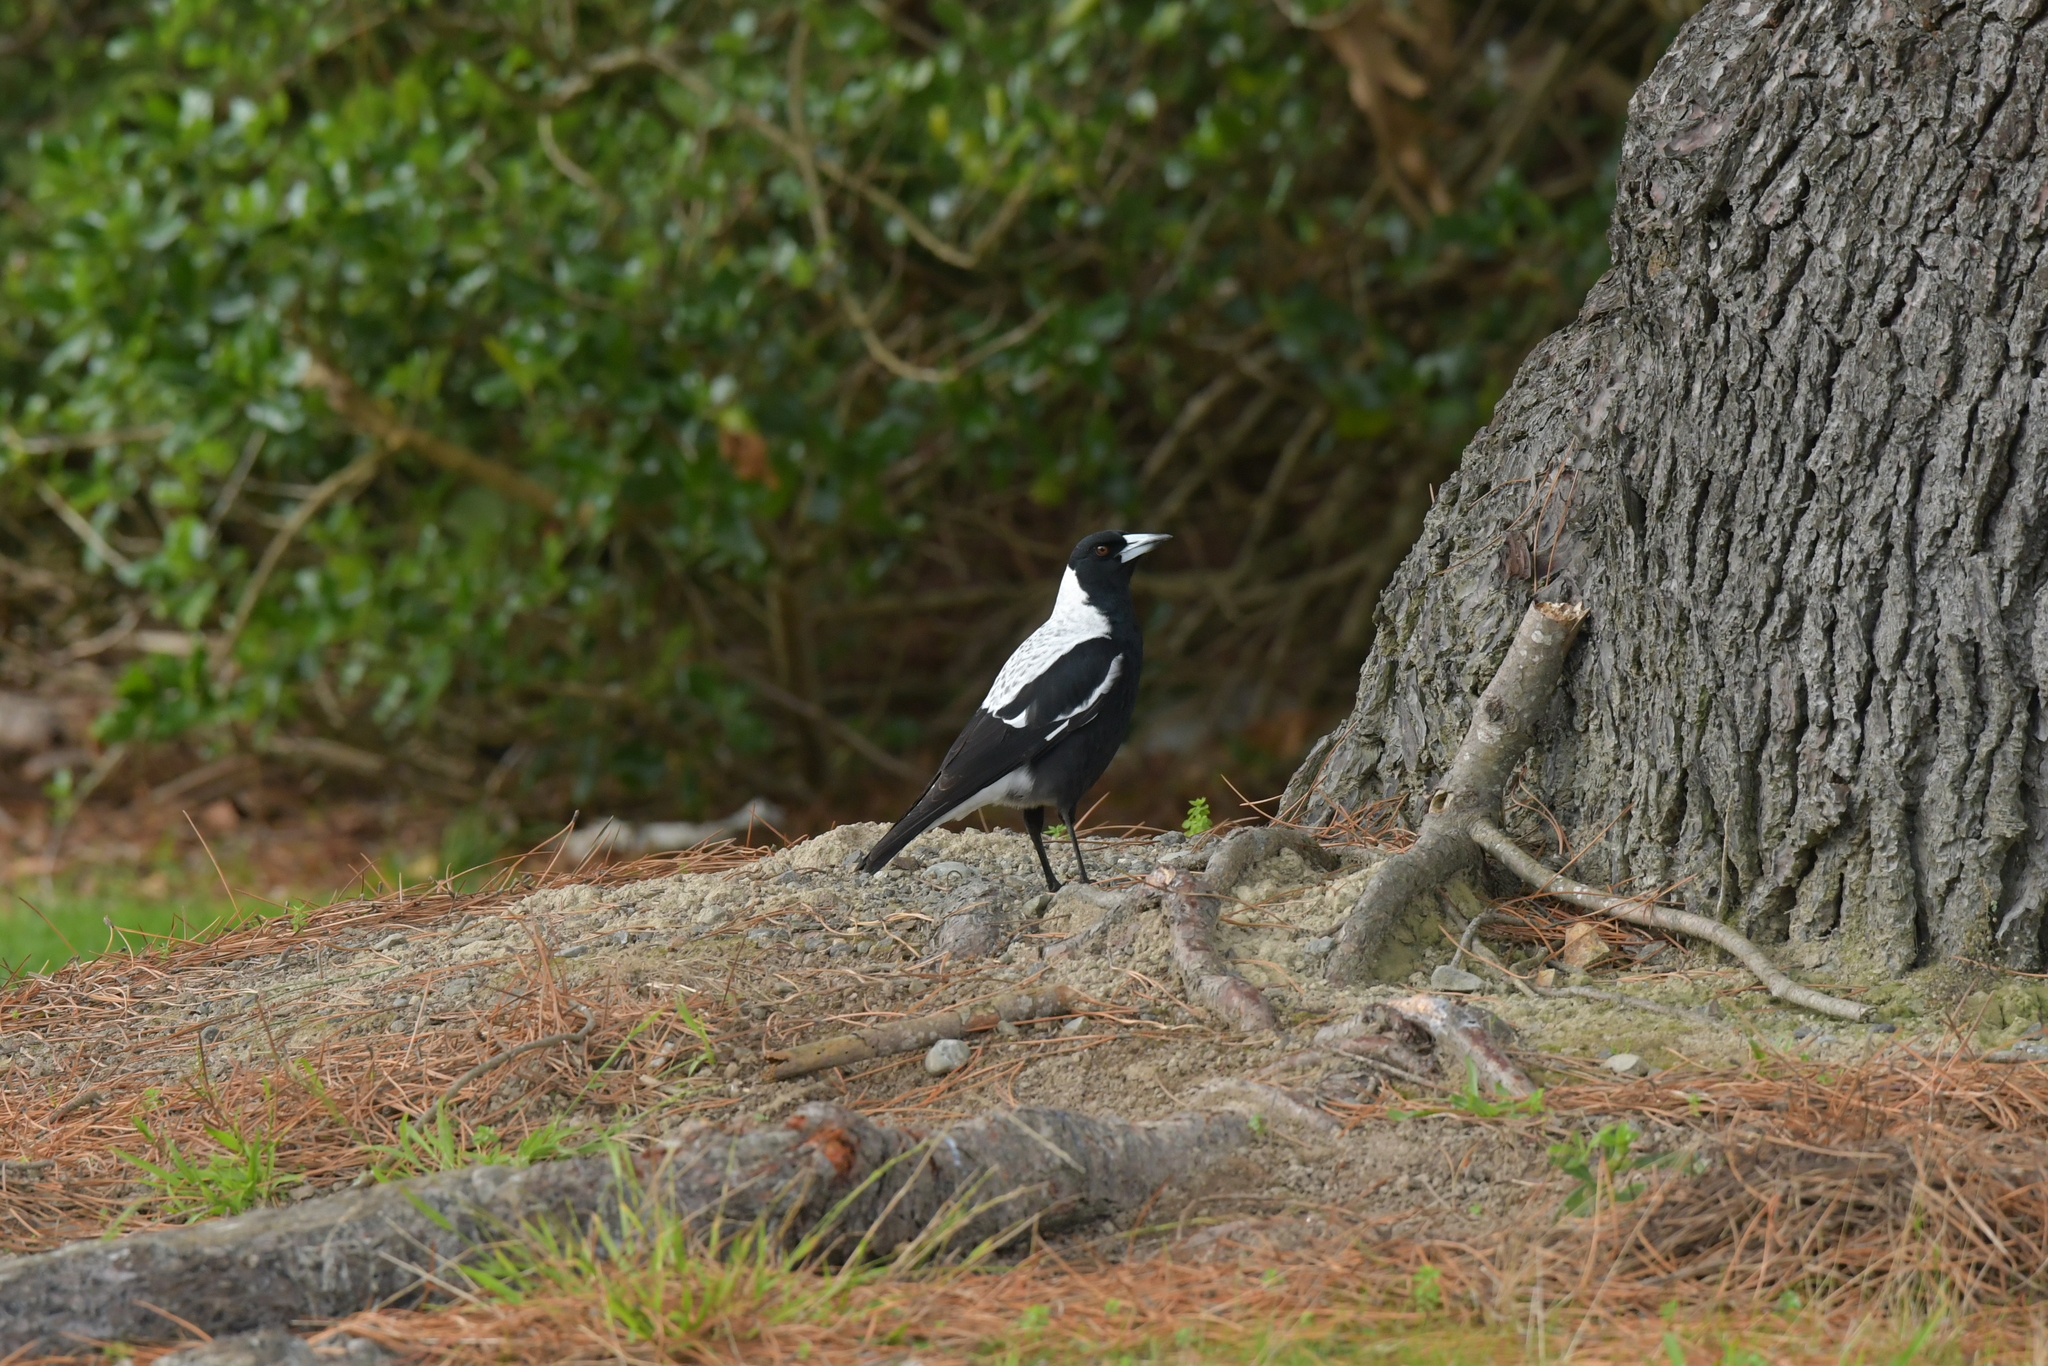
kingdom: Animalia
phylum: Chordata
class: Aves
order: Passeriformes
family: Cracticidae
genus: Gymnorhina
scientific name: Gymnorhina tibicen
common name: Australian magpie
